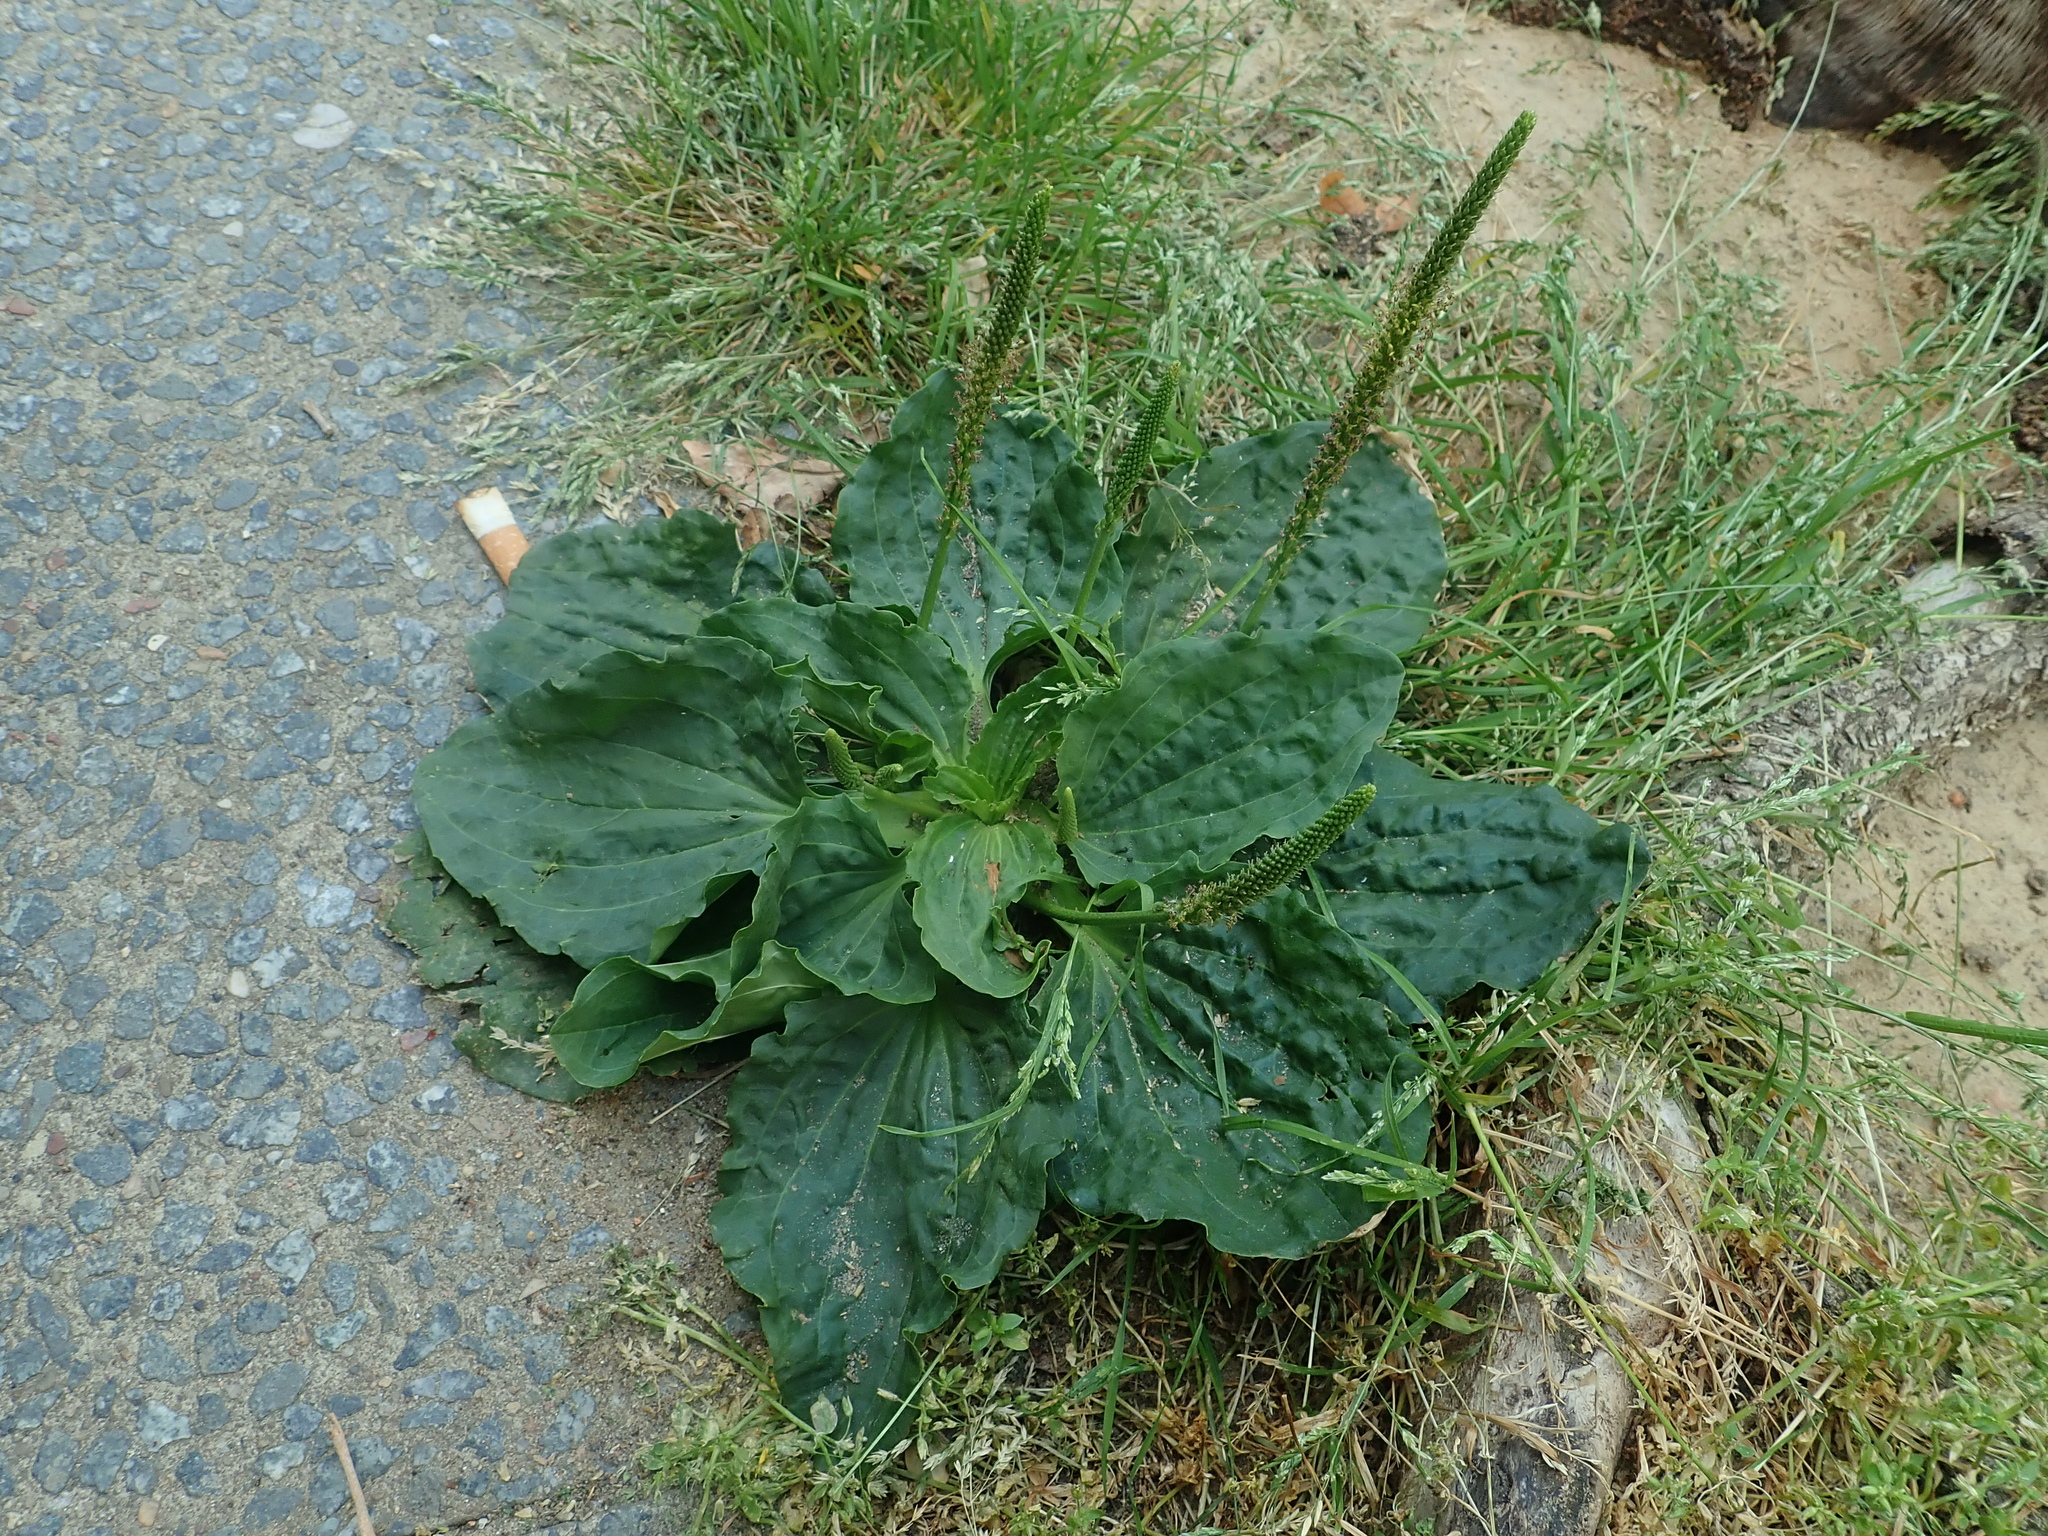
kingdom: Plantae
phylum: Tracheophyta
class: Magnoliopsida
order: Lamiales
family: Plantaginaceae
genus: Plantago
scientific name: Plantago major
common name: Common plantain
